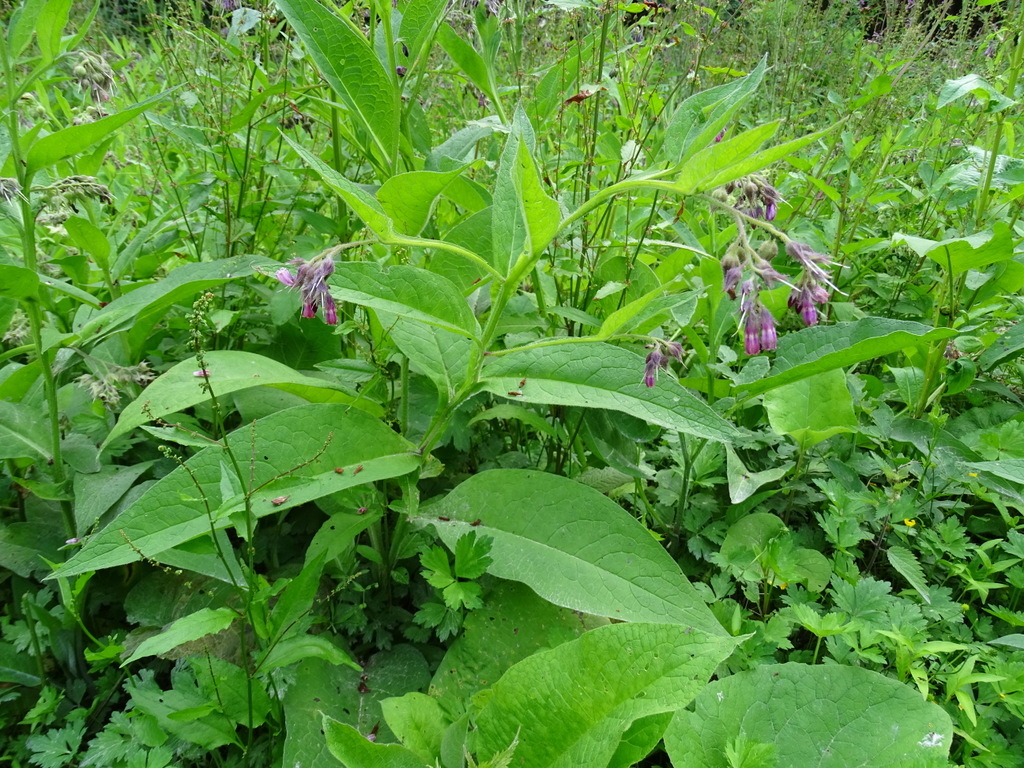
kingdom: Plantae
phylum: Tracheophyta
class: Magnoliopsida
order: Boraginales
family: Boraginaceae
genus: Symphytum
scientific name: Symphytum officinale
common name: Common comfrey
